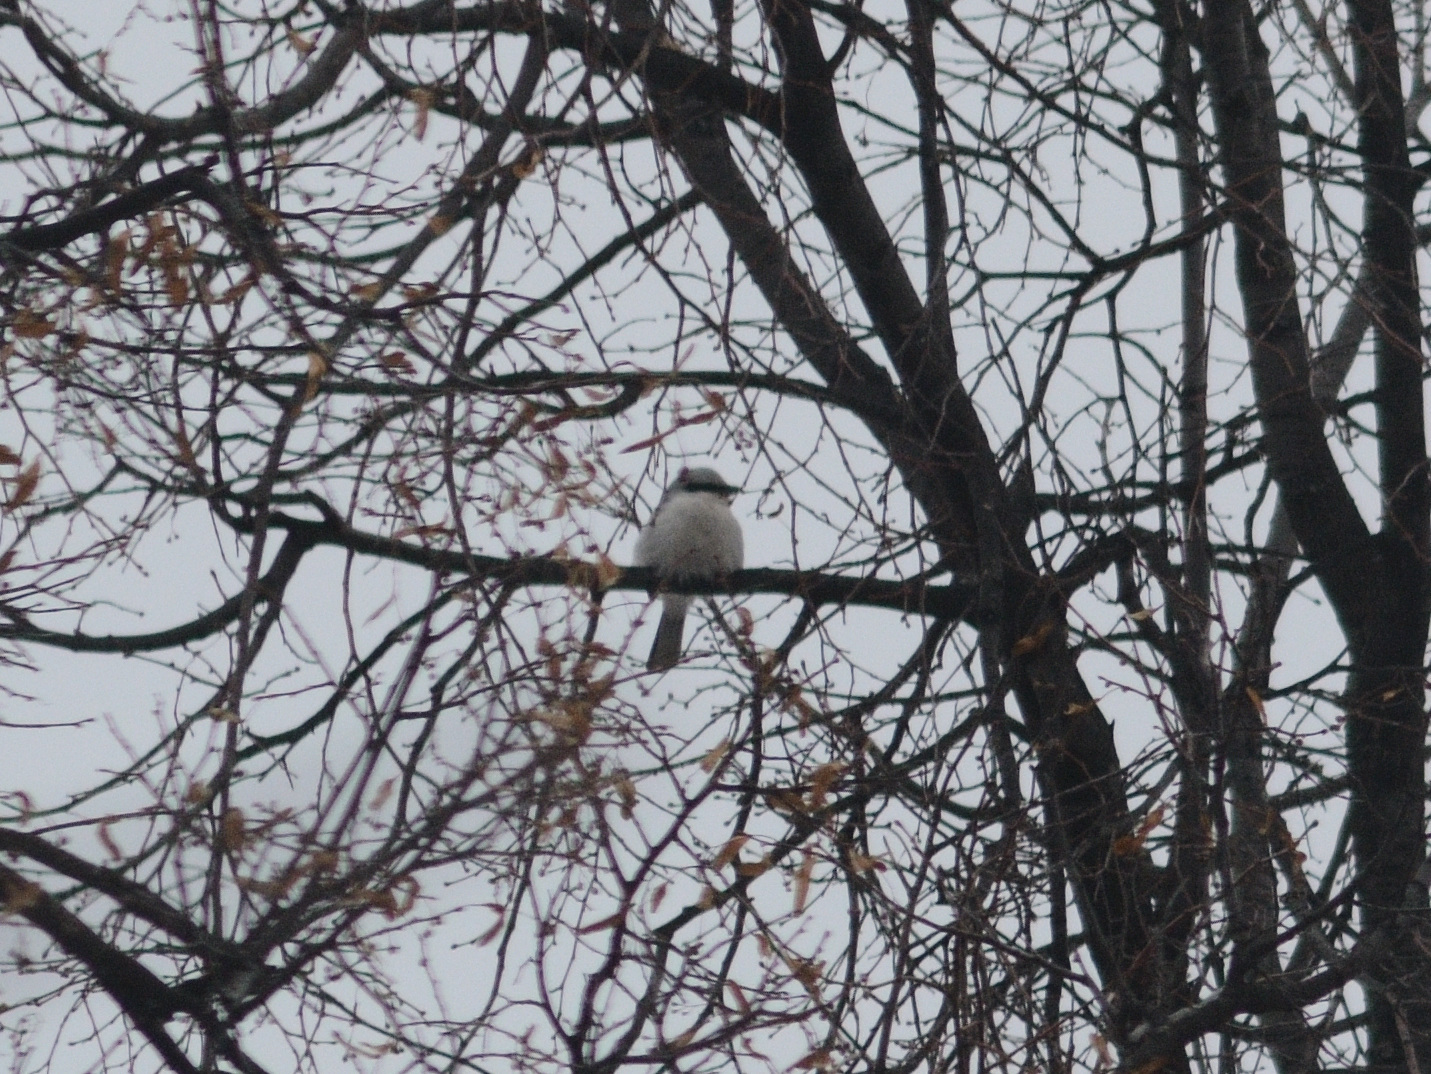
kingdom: Animalia
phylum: Chordata
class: Aves
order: Passeriformes
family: Laniidae
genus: Lanius
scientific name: Lanius excubitor
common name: Great grey shrike
